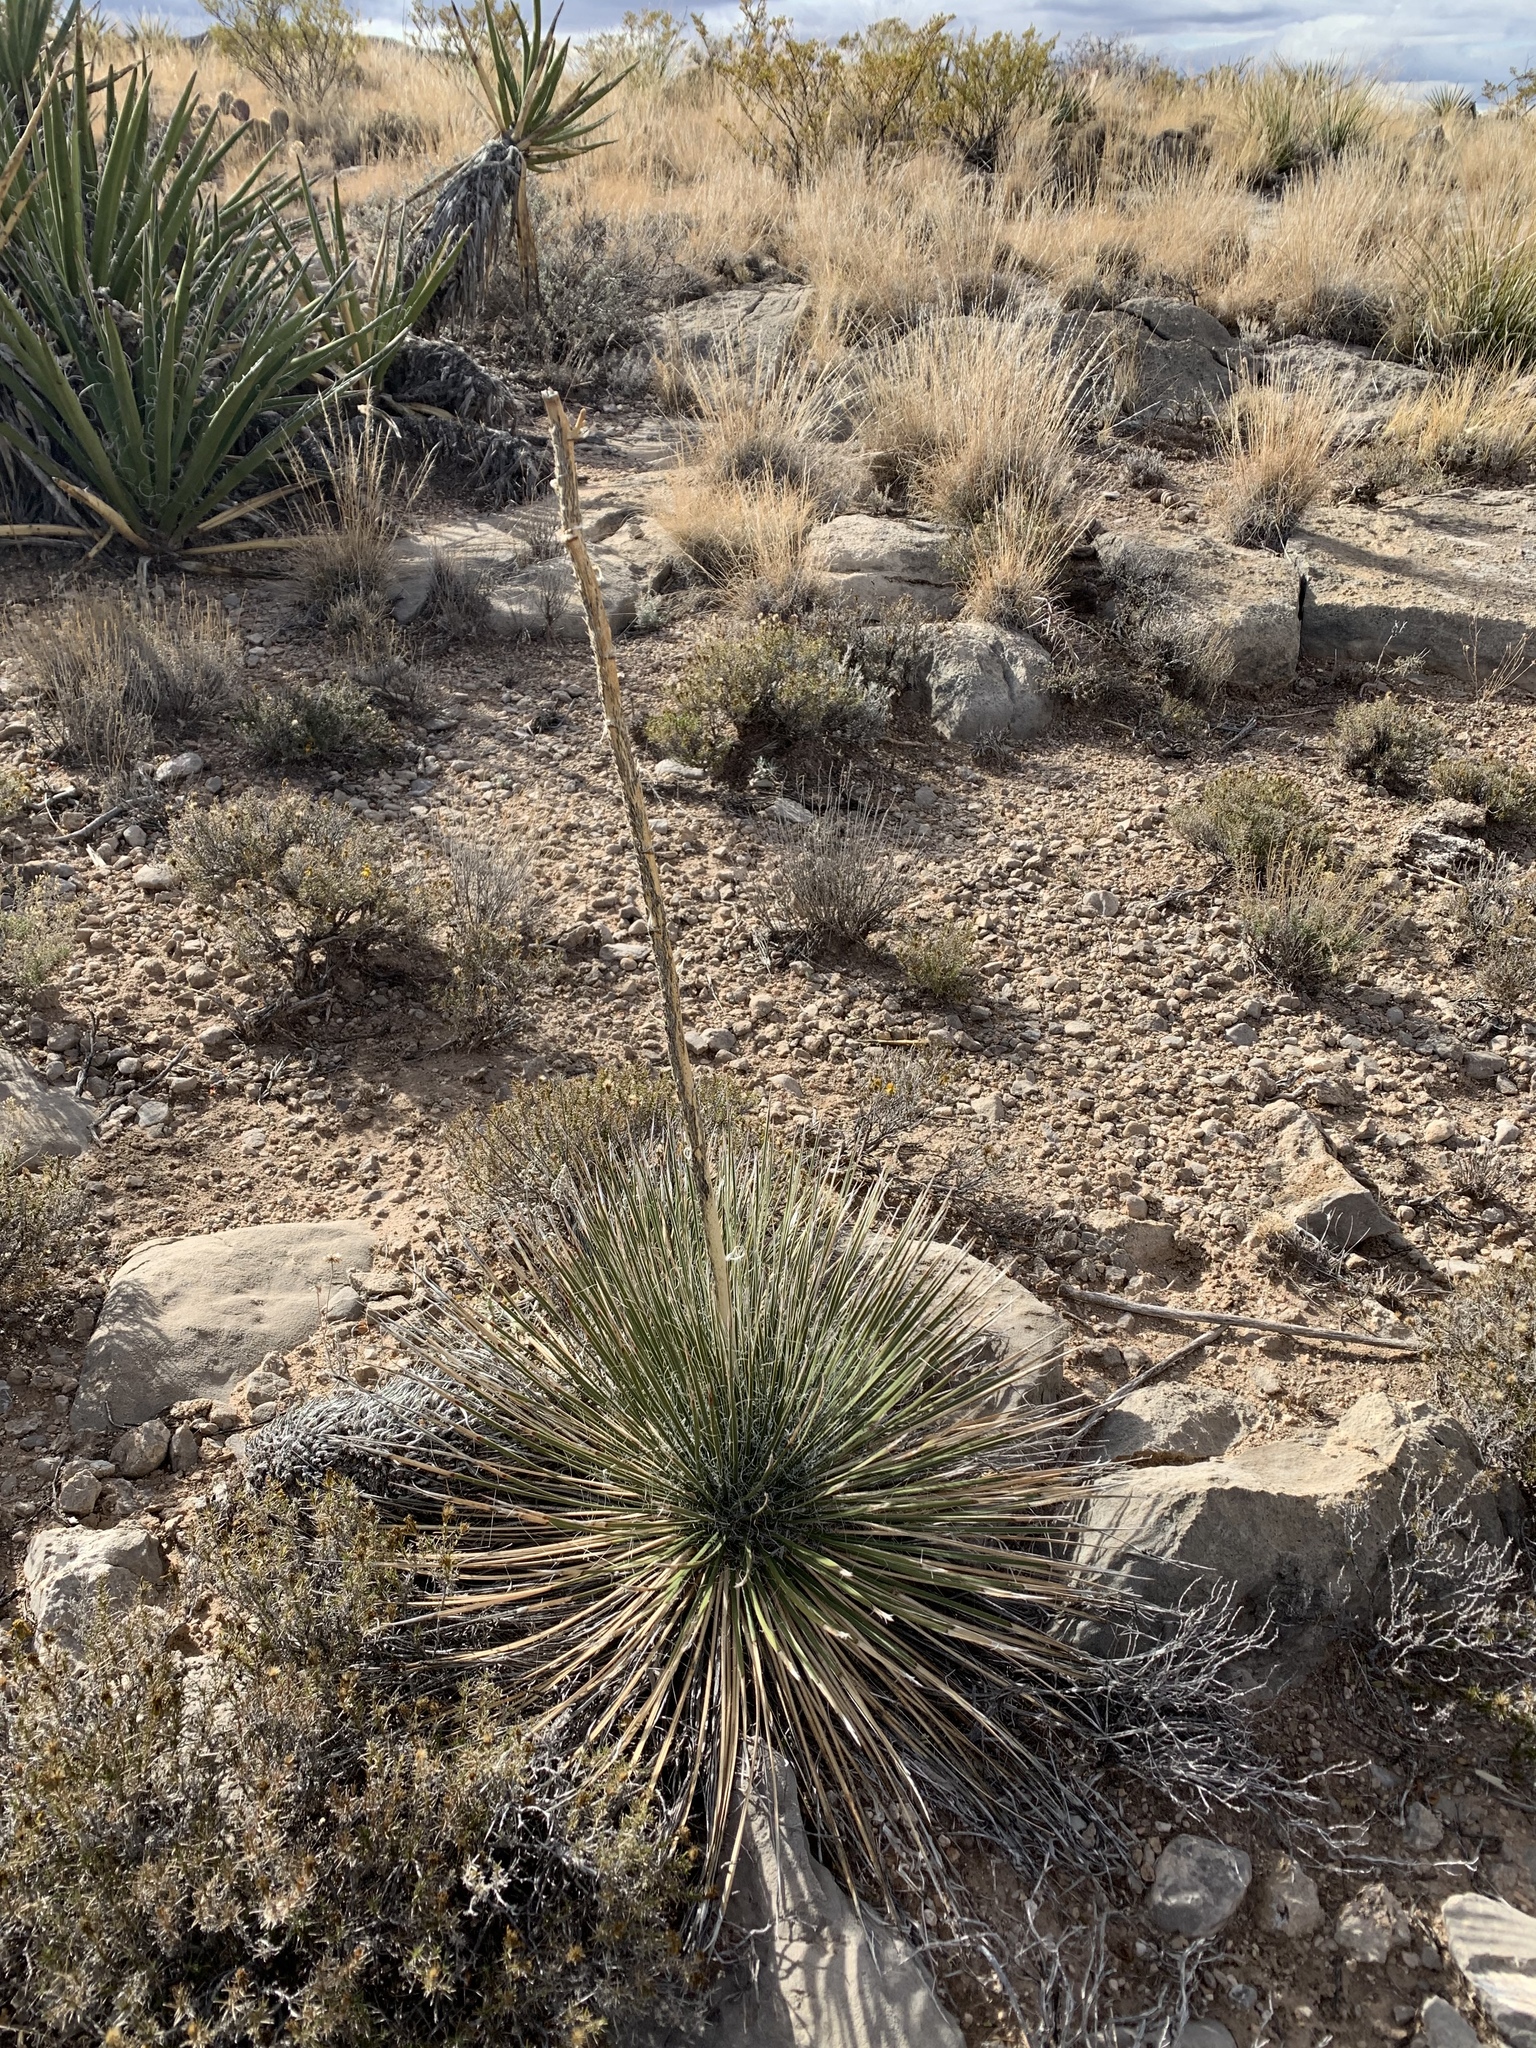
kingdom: Plantae
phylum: Tracheophyta
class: Liliopsida
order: Asparagales
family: Asparagaceae
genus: Yucca
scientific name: Yucca elata
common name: Palmella
